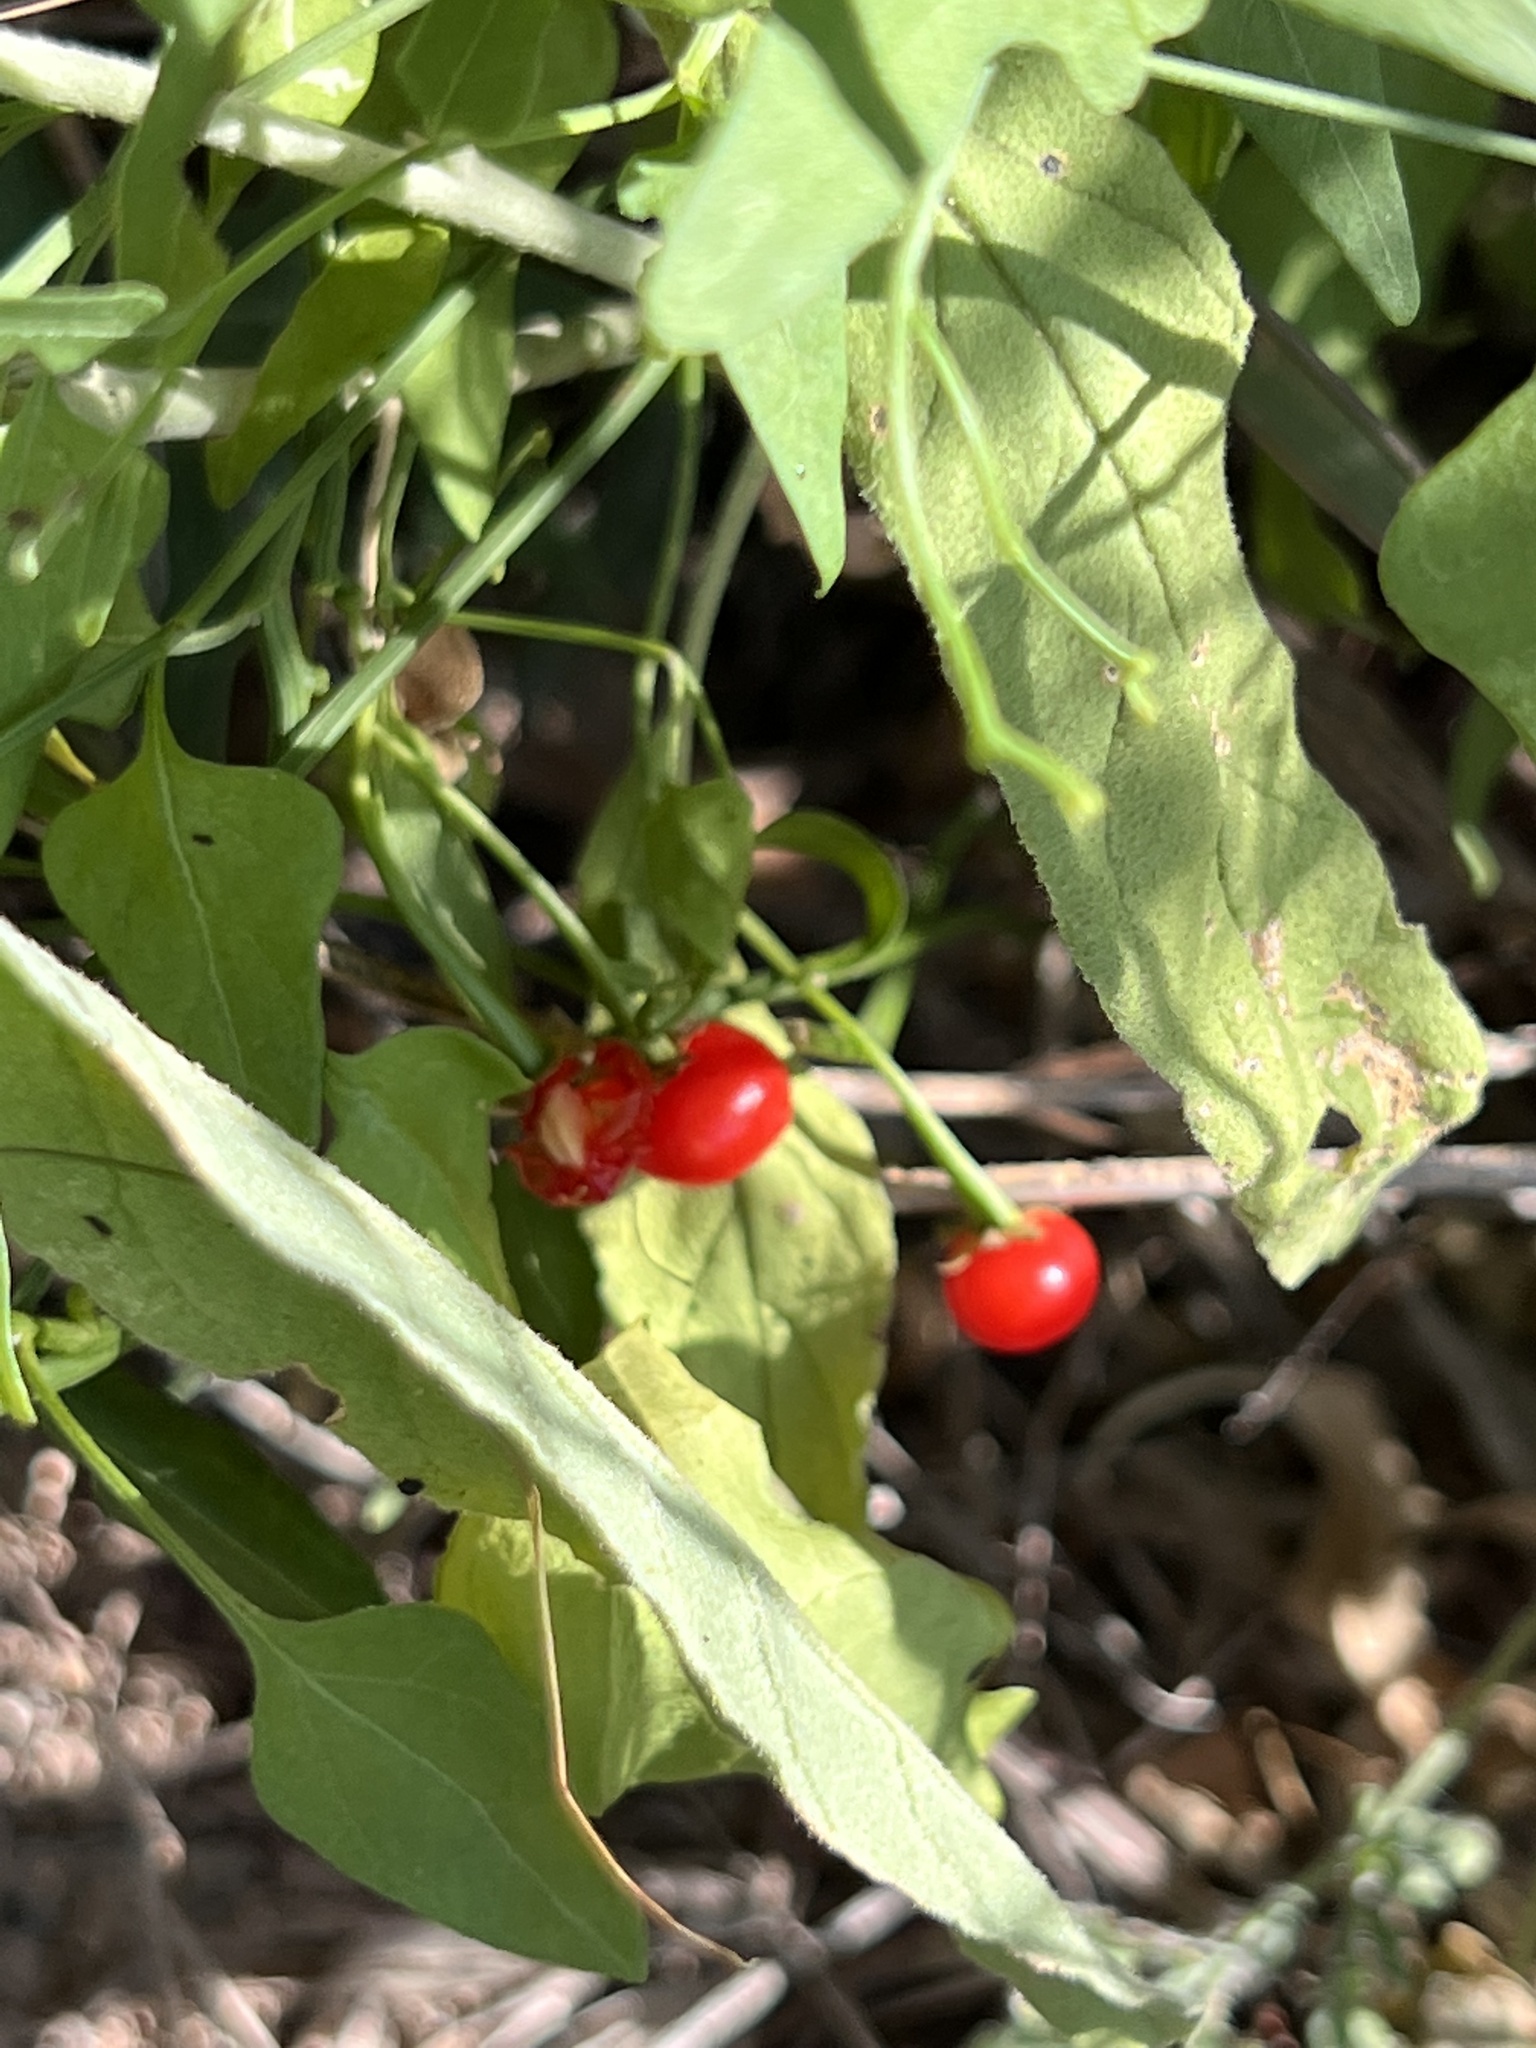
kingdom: Plantae
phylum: Tracheophyta
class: Magnoliopsida
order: Solanales
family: Solanaceae
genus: Solanum
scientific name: Solanum triquetrum
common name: Texas nightshade
